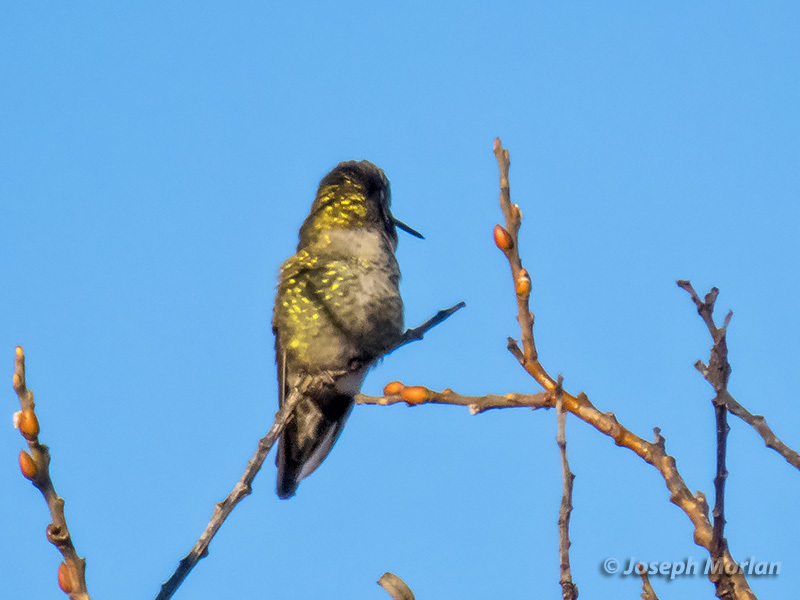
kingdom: Animalia
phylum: Chordata
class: Aves
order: Apodiformes
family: Trochilidae
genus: Calypte
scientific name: Calypte anna
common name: Anna's hummingbird
